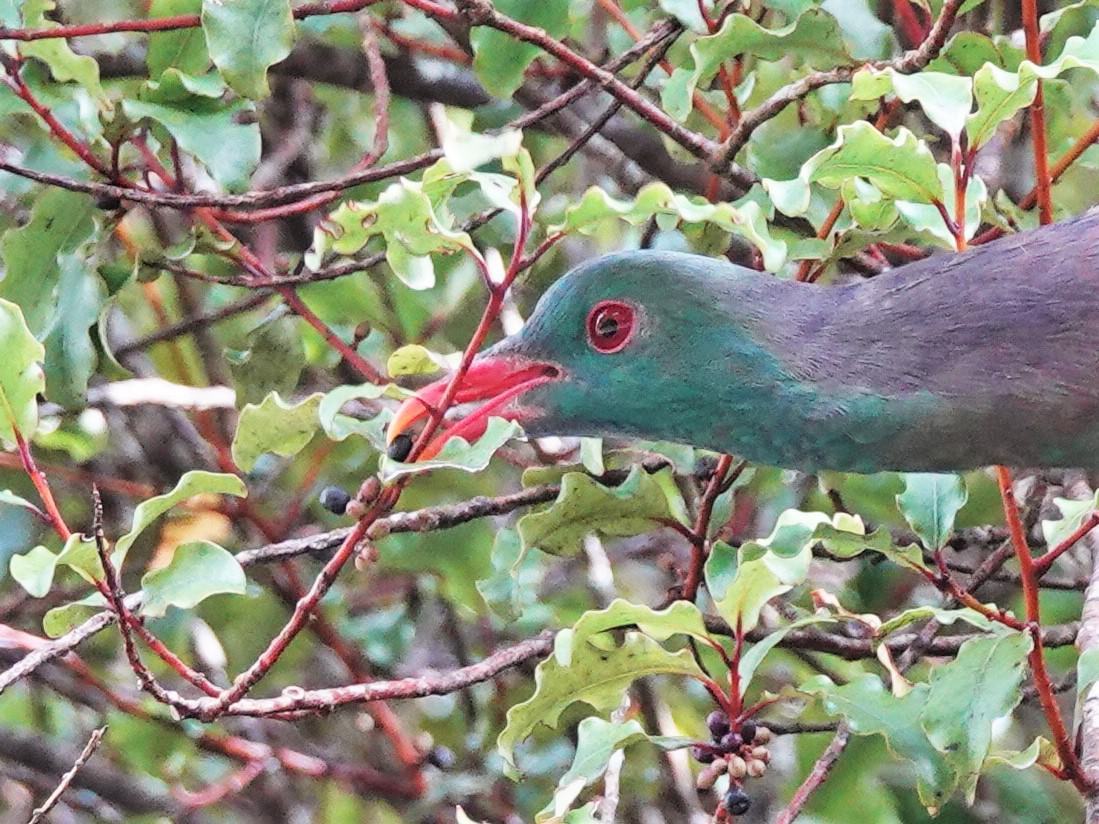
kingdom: Animalia
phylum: Chordata
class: Aves
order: Columbiformes
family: Columbidae
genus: Hemiphaga
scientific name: Hemiphaga novaeseelandiae
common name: New zealand pigeon
